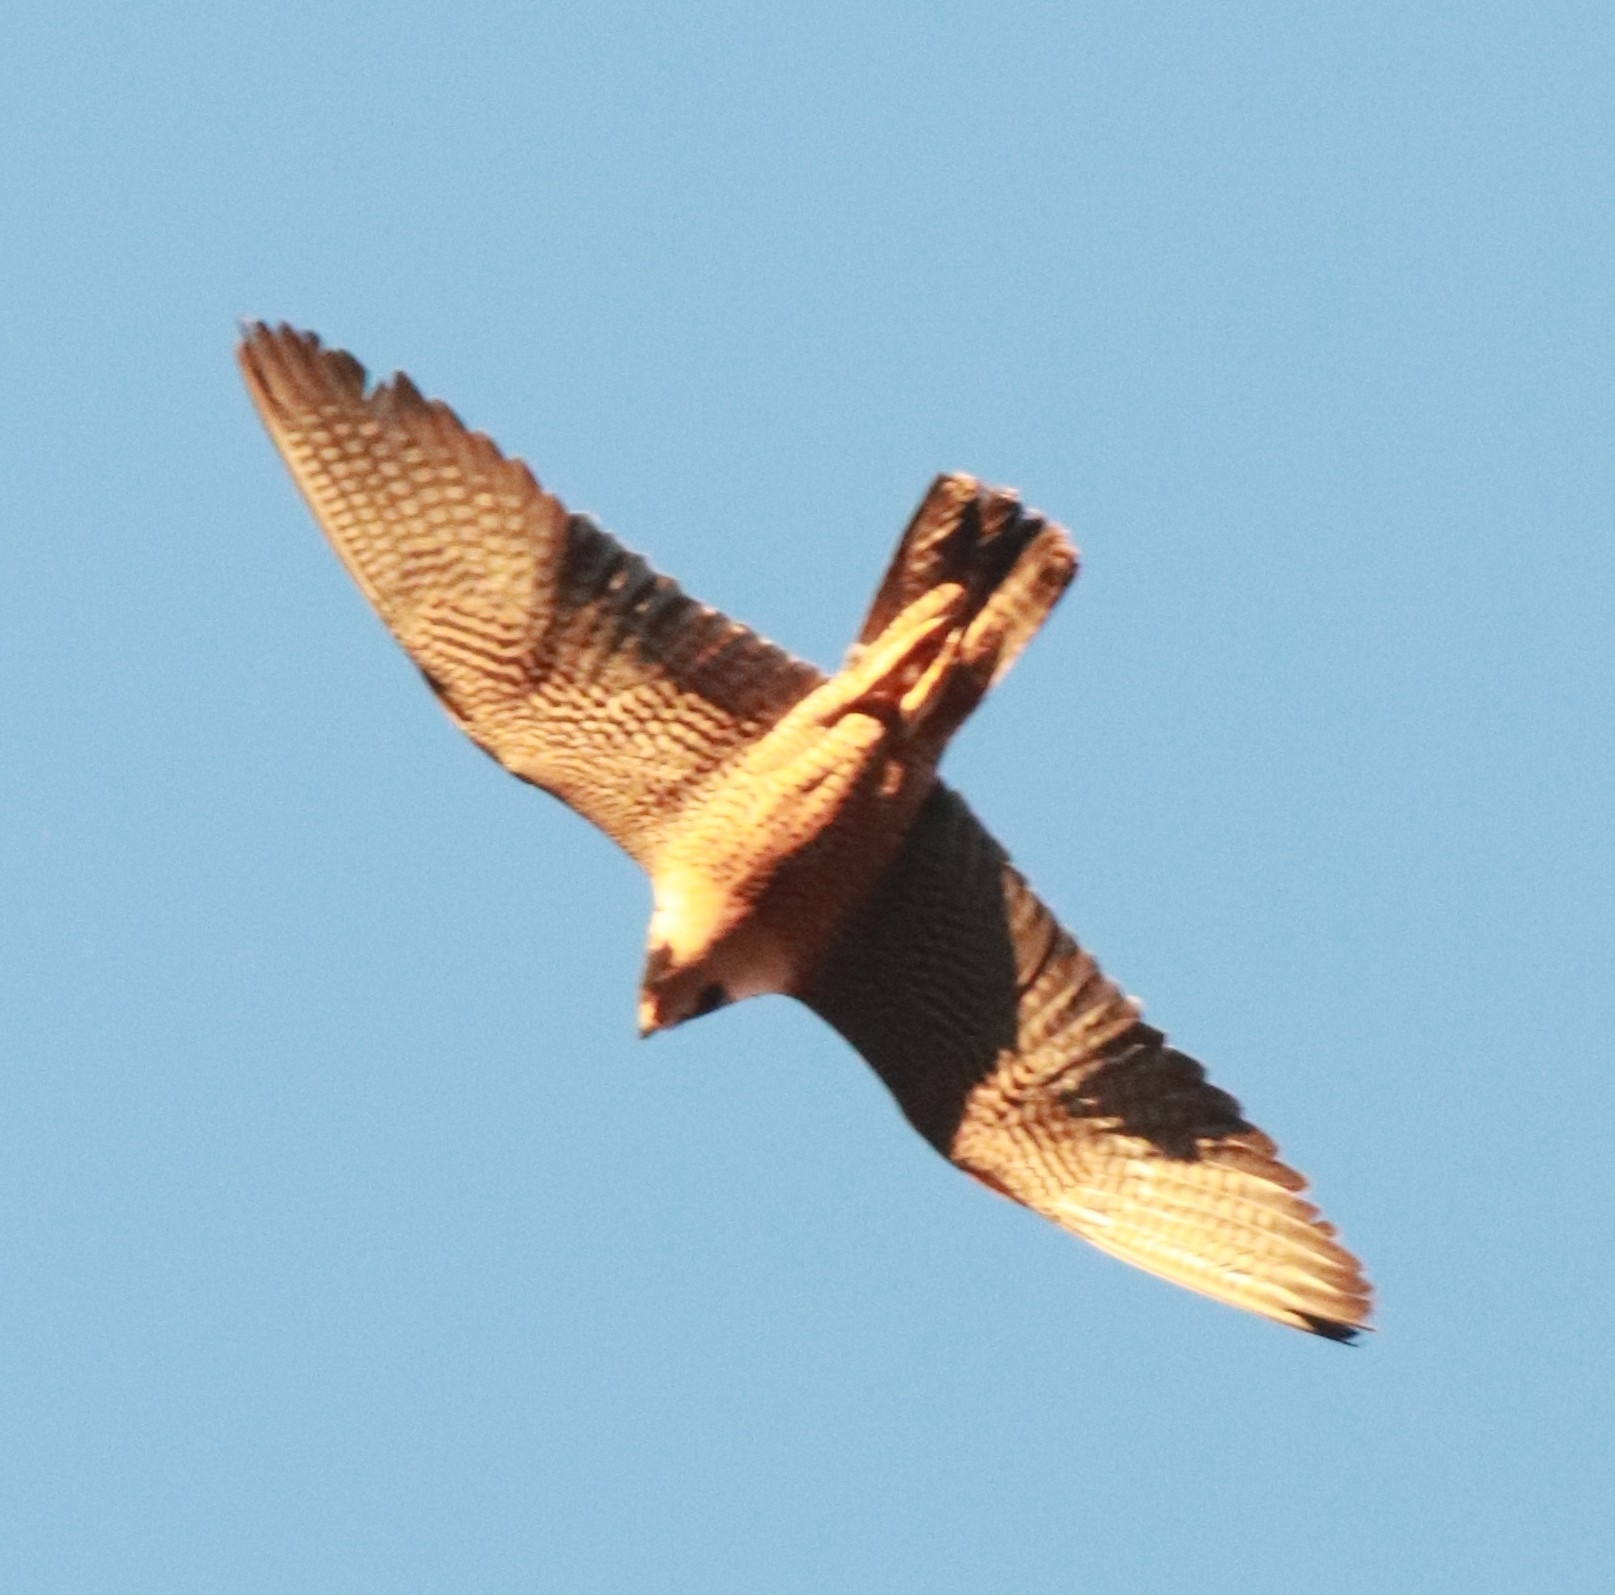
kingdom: Animalia
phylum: Chordata
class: Aves
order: Falconiformes
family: Falconidae
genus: Falco
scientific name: Falco peregrinus
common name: Peregrine falcon
